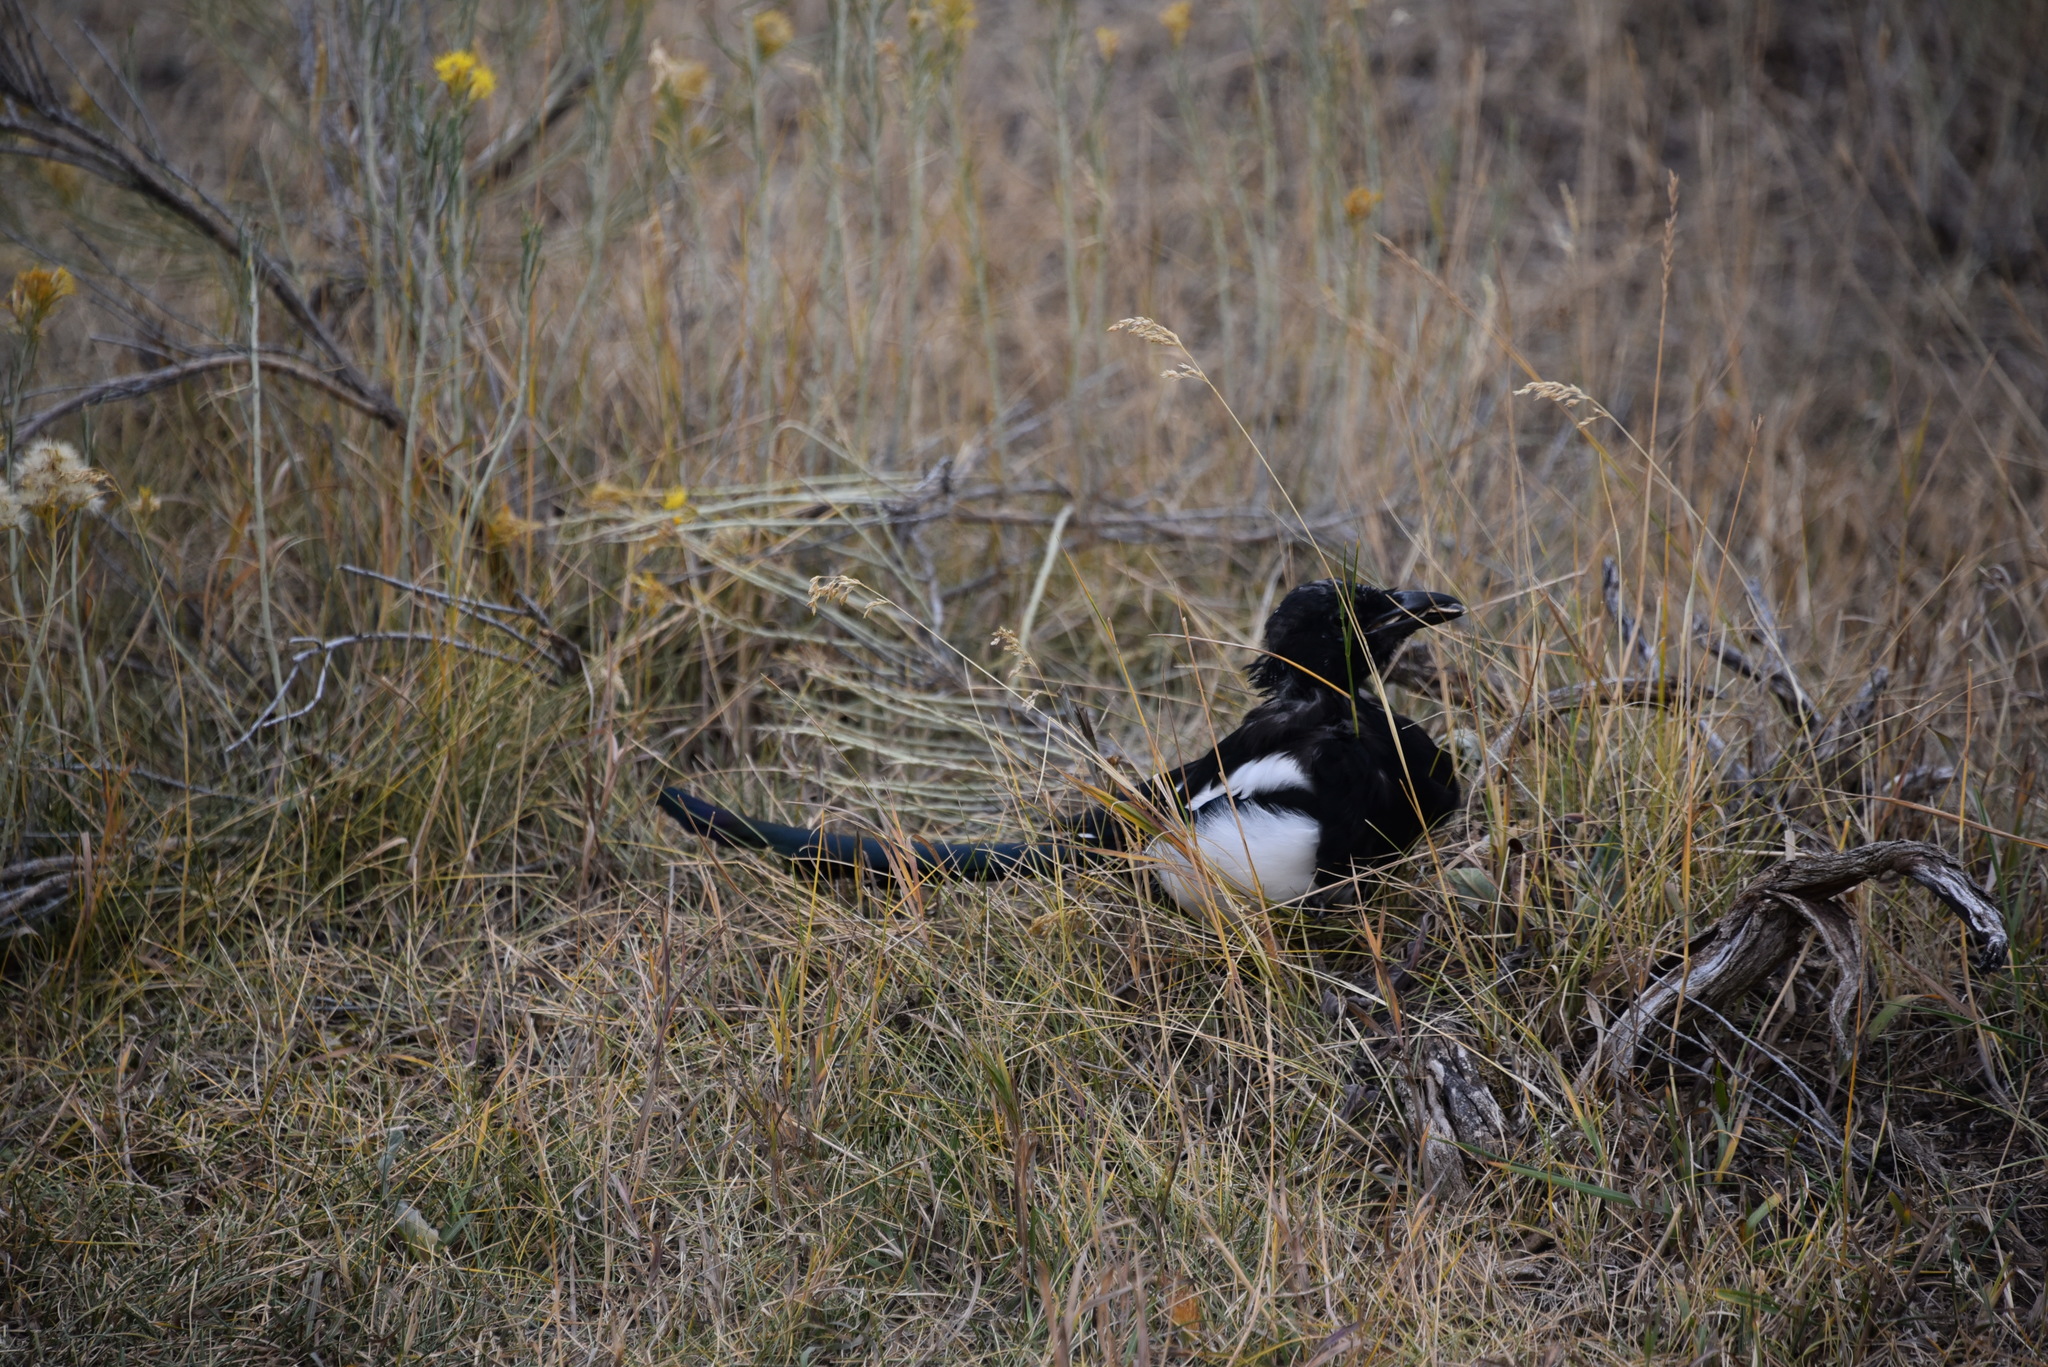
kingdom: Animalia
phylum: Chordata
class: Aves
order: Passeriformes
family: Corvidae
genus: Pica
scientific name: Pica hudsonia
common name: Black-billed magpie
